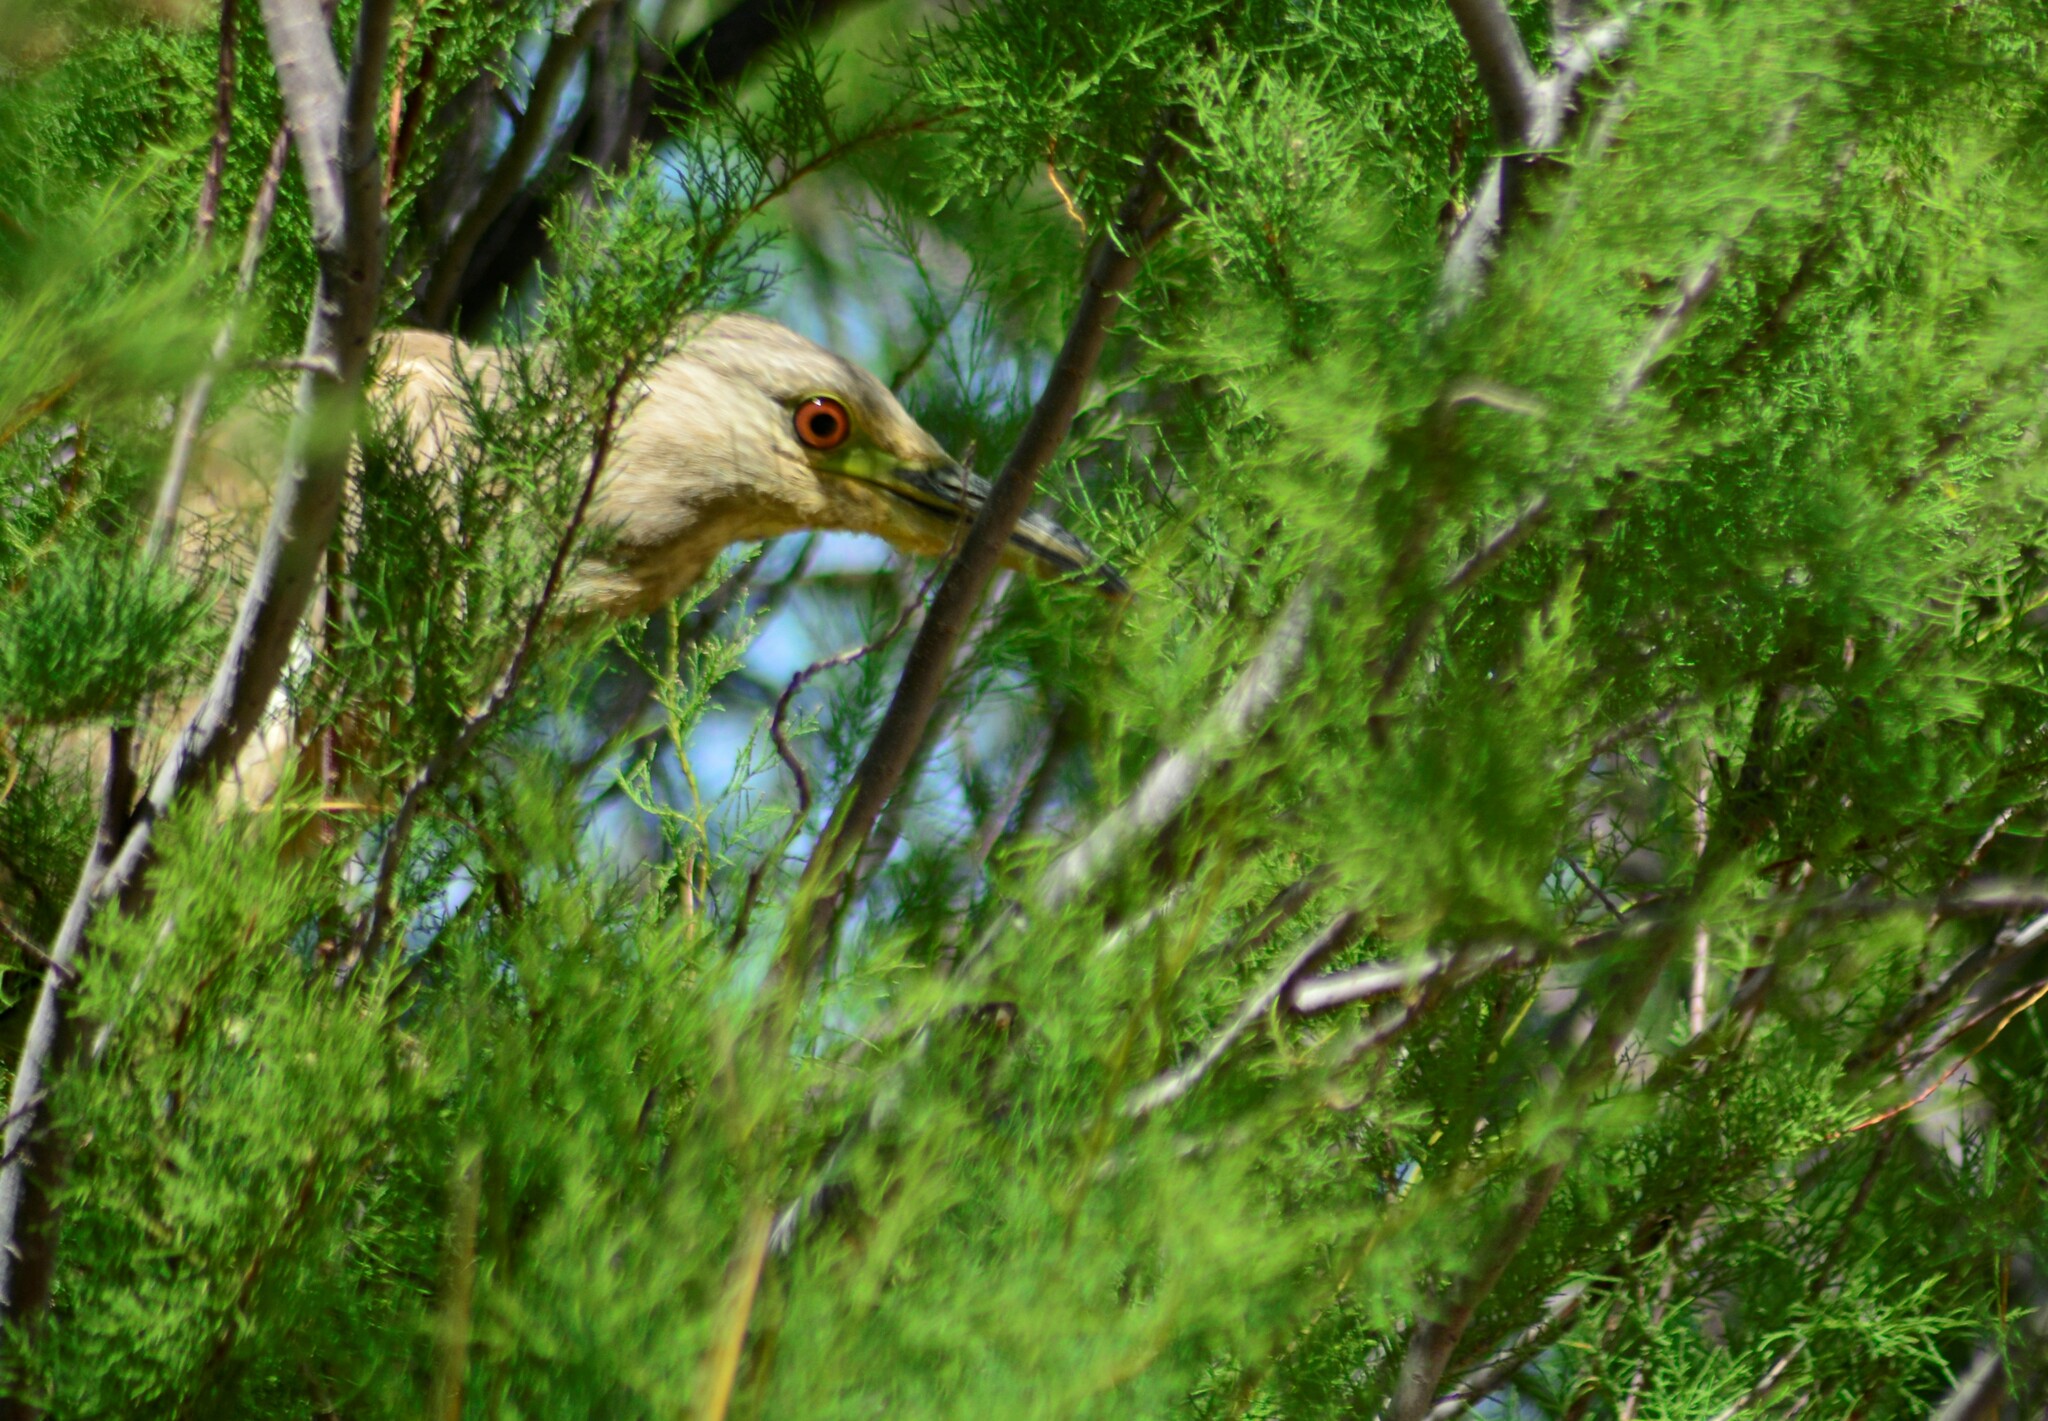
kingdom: Animalia
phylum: Chordata
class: Aves
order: Pelecaniformes
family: Ardeidae
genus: Nycticorax
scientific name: Nycticorax nycticorax
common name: Black-crowned night heron
